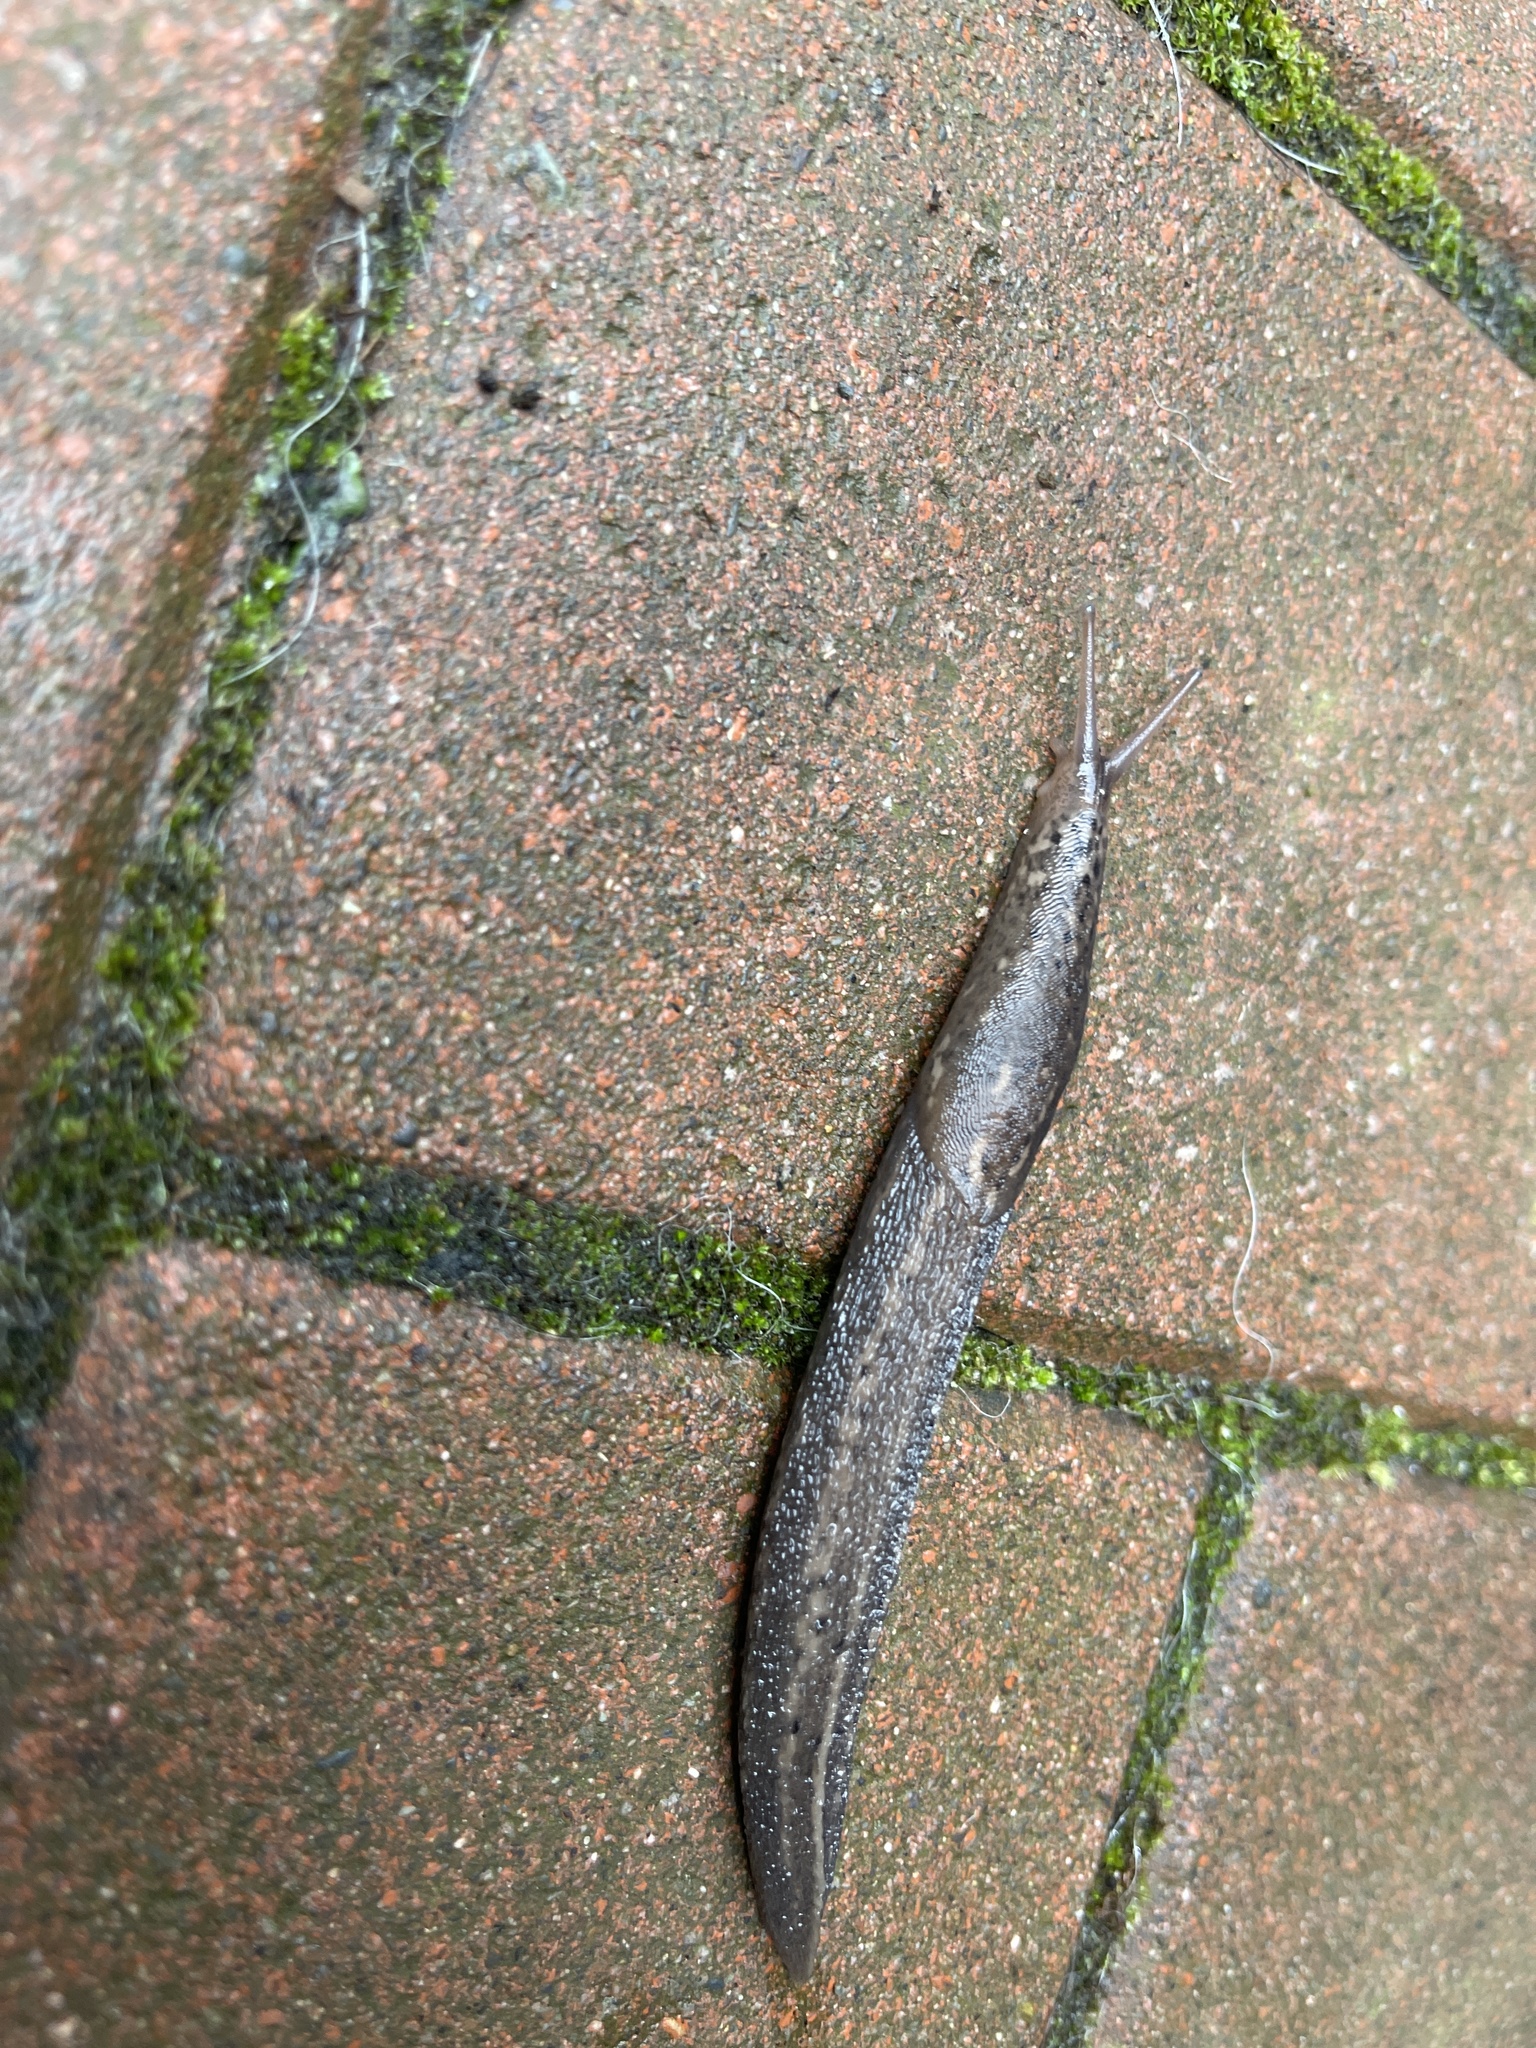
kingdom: Animalia
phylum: Mollusca
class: Gastropoda
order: Stylommatophora
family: Limacidae
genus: Limax
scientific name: Limax maximus
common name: Great grey slug
